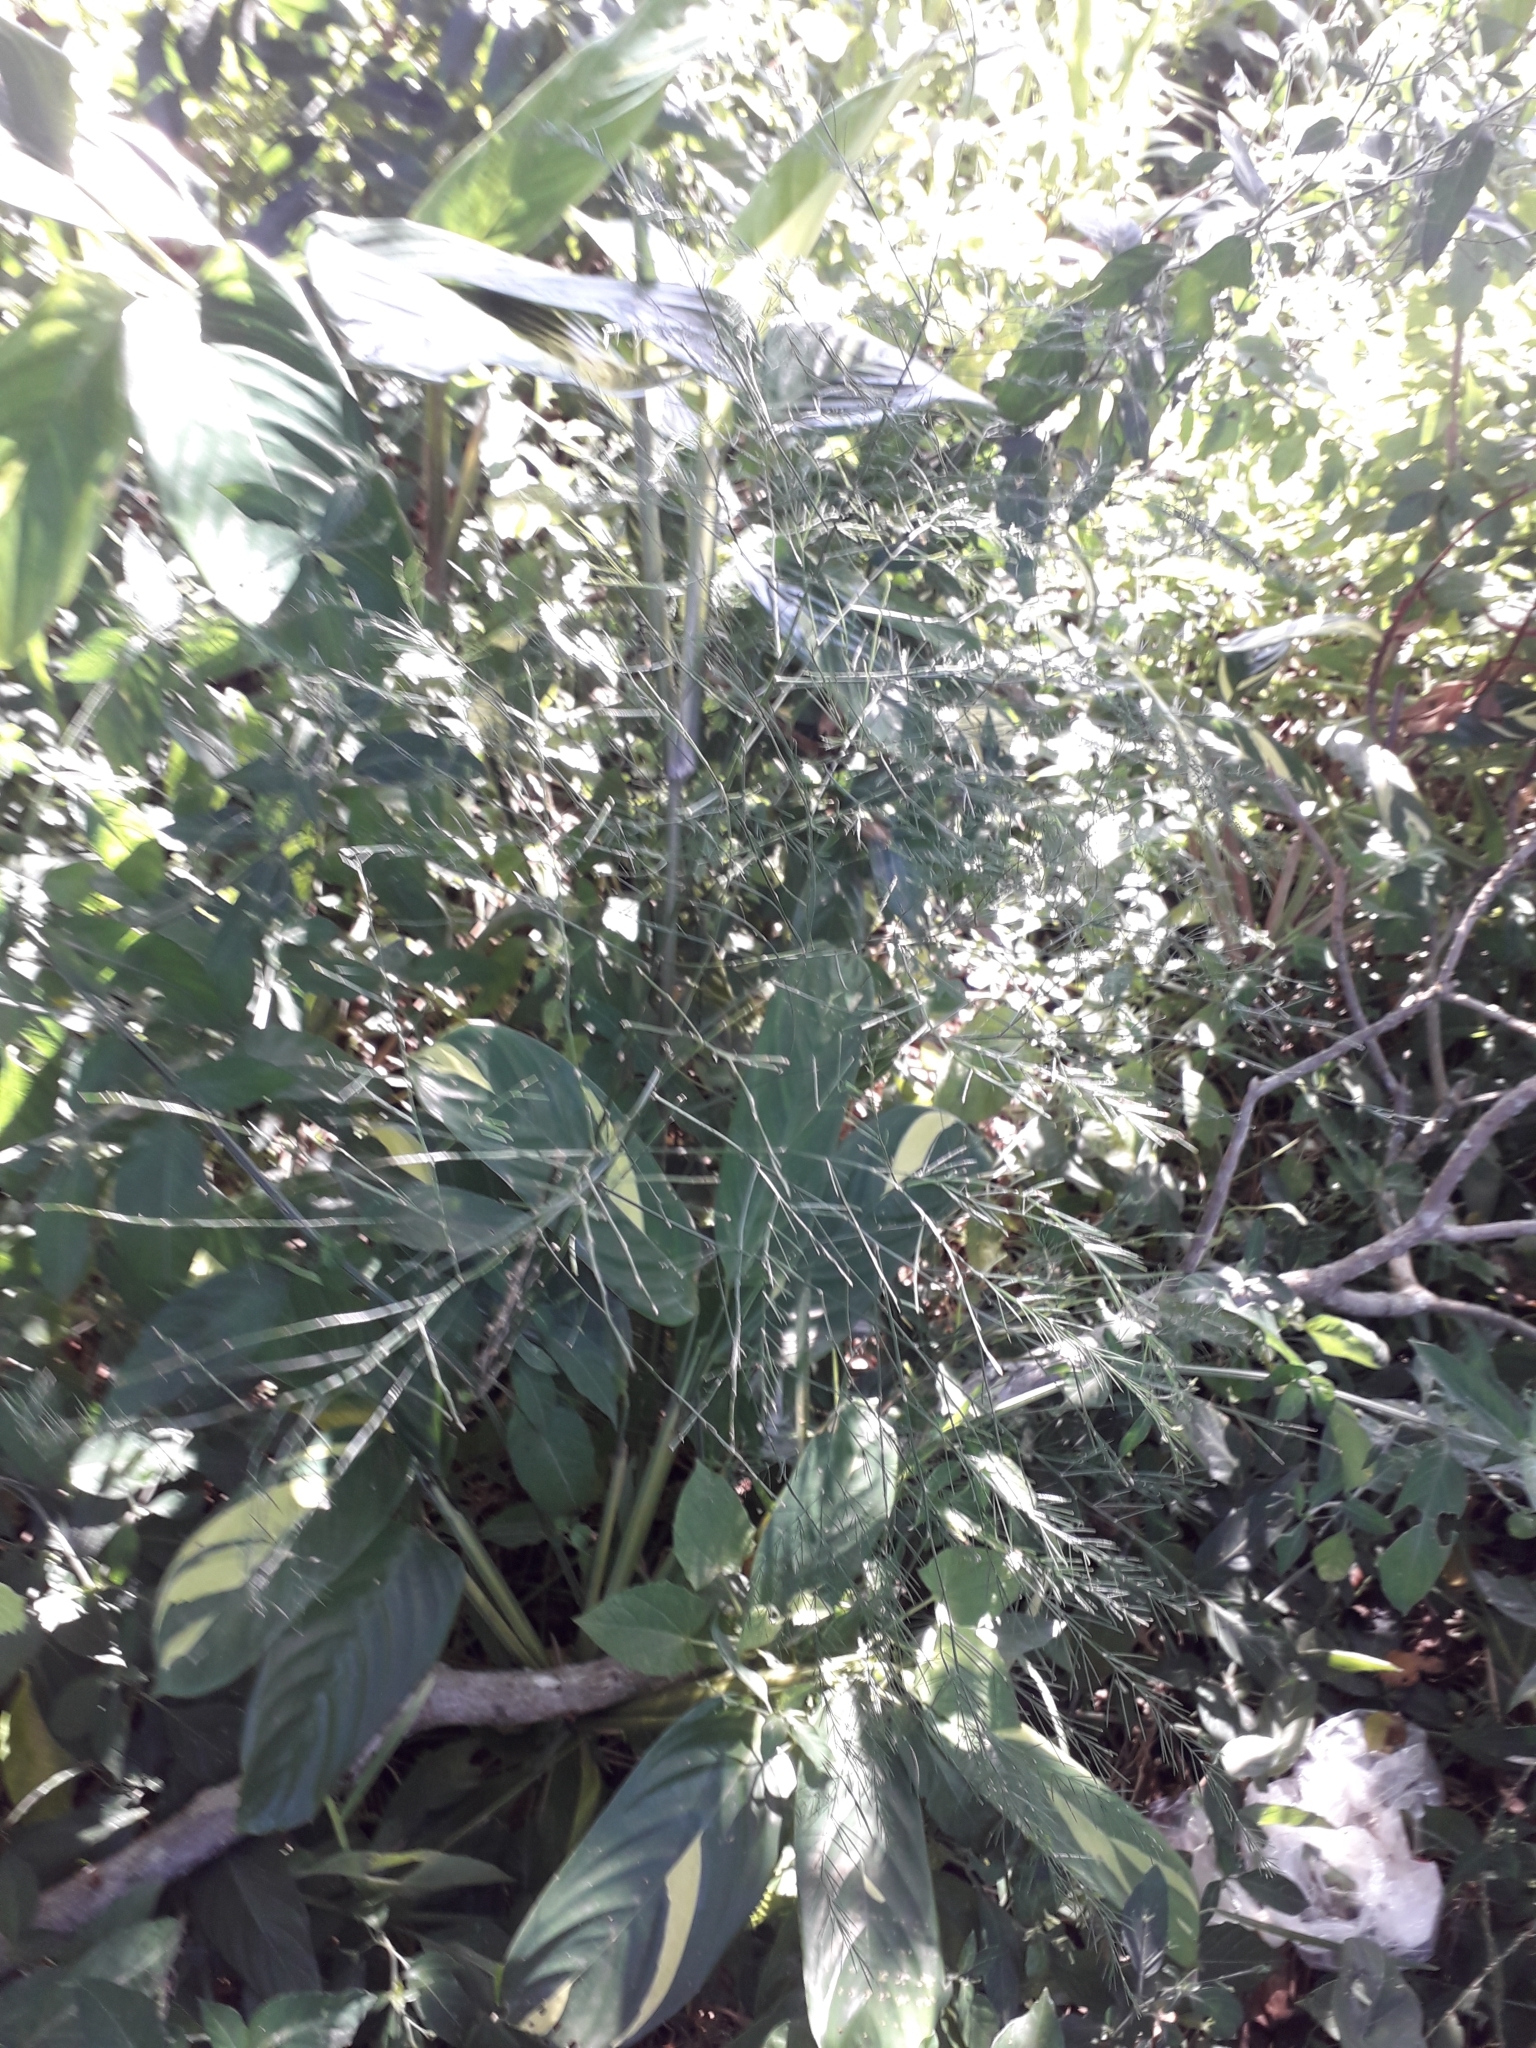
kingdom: Plantae
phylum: Tracheophyta
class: Liliopsida
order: Asparagales
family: Asparagaceae
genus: Asparagus
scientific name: Asparagus virgatus
